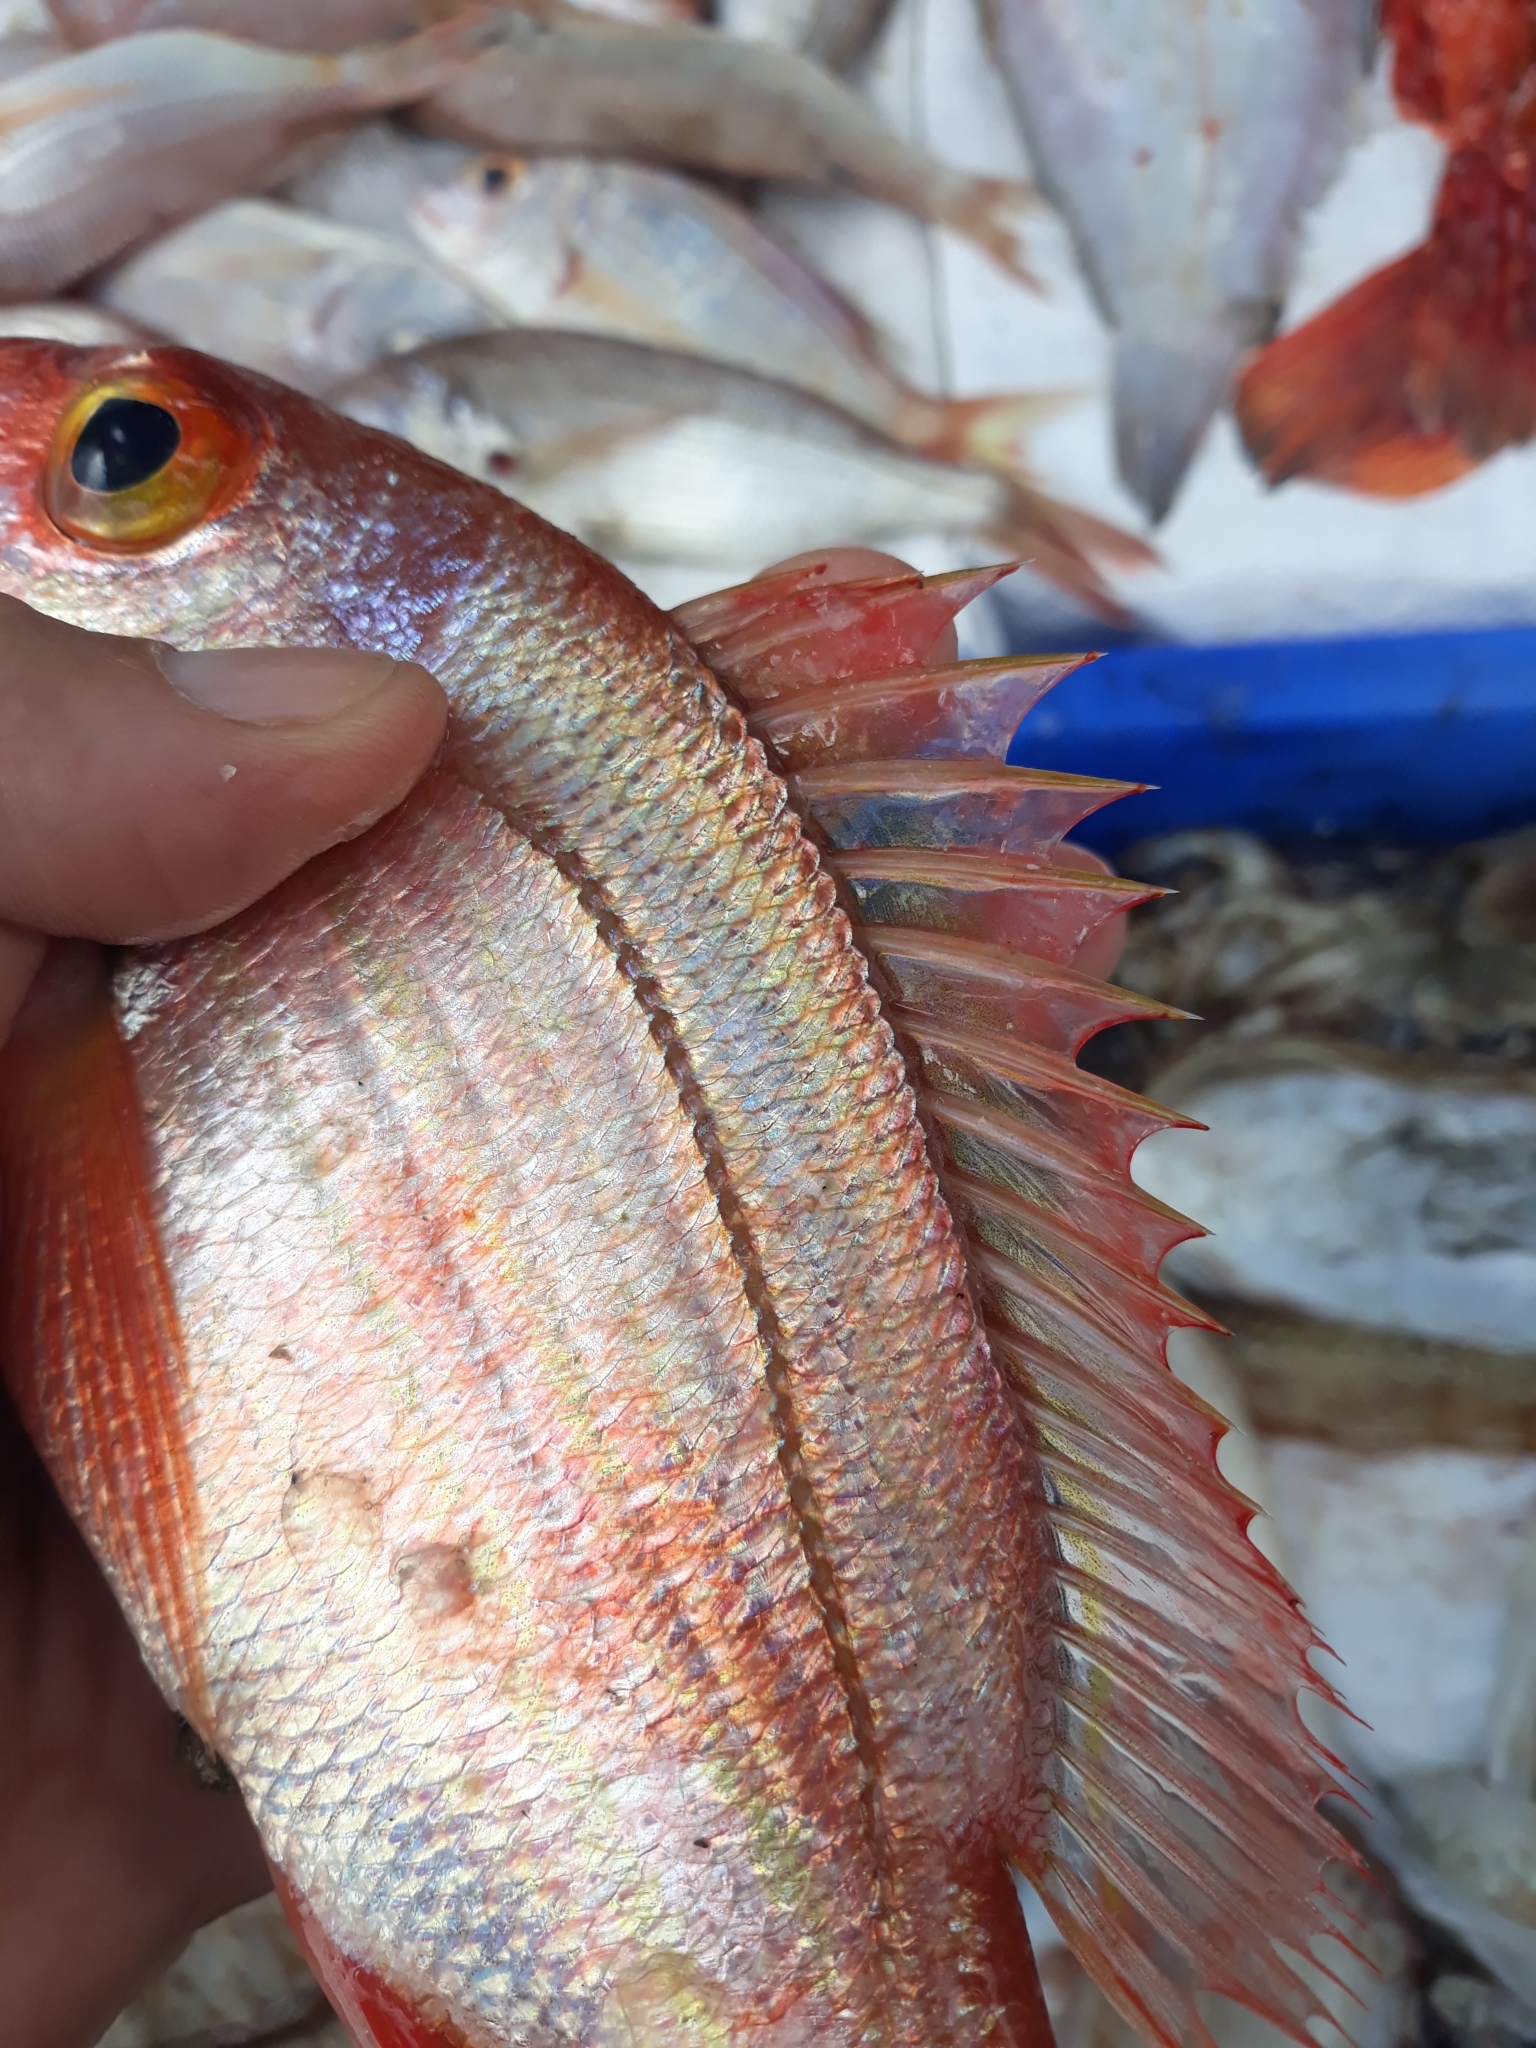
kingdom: Animalia
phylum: Chordata
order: Perciformes
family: Sparidae
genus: Dentex
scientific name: Dentex maroccanus
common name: Morocco dentex
